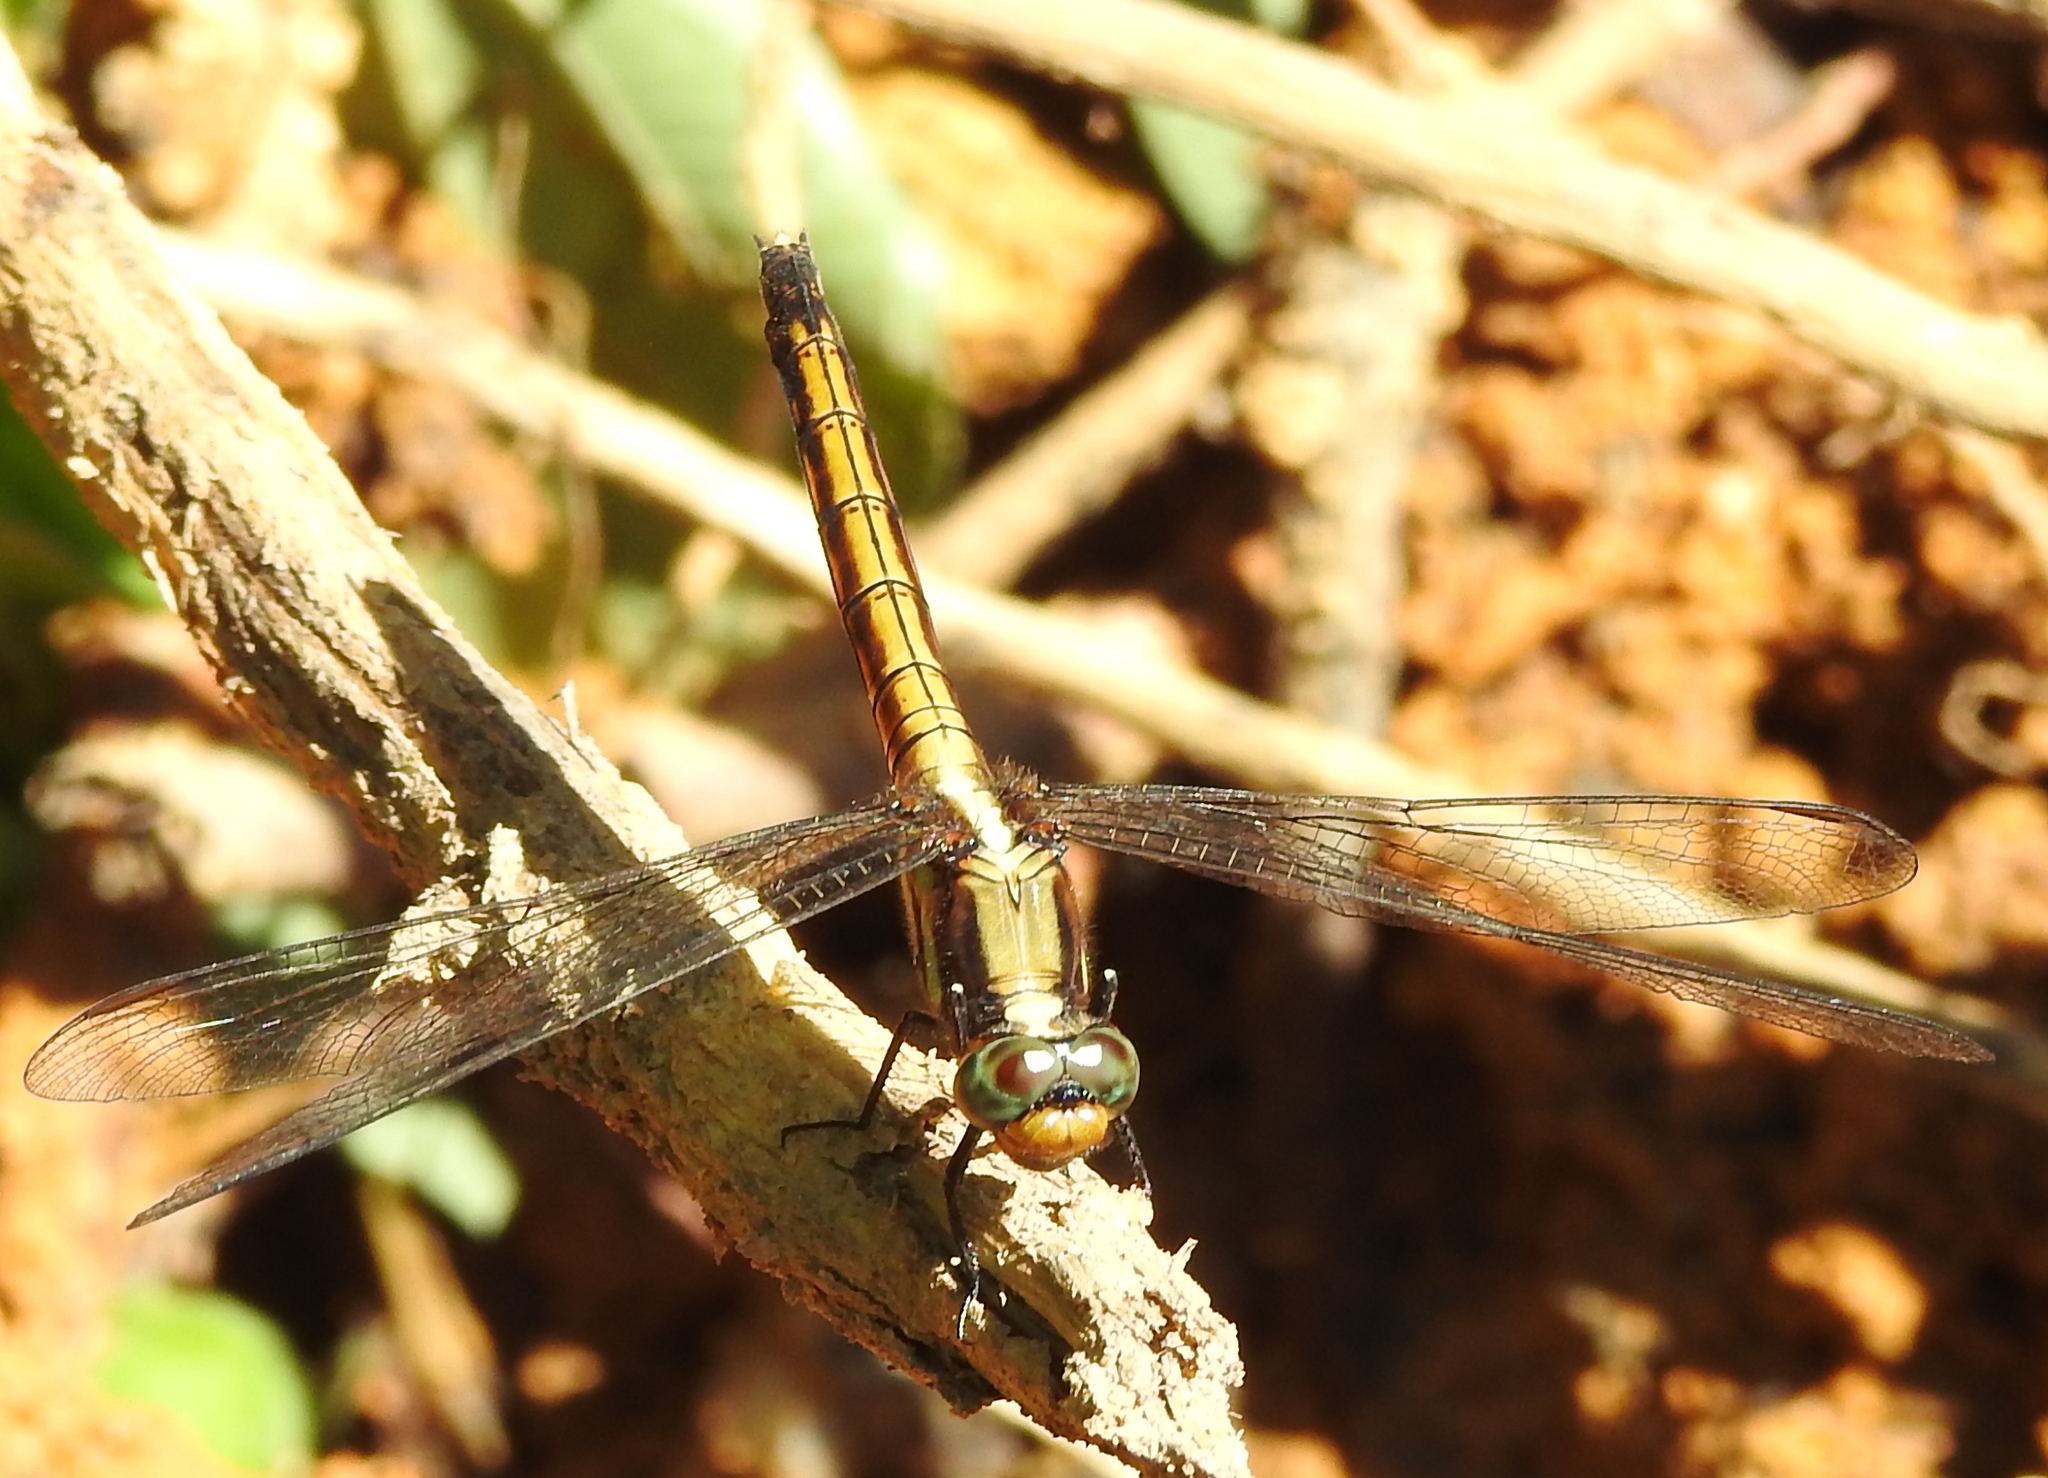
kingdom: Animalia
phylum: Arthropoda
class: Insecta
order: Odonata
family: Libellulidae
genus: Orthetrum
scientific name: Orthetrum glaucum
